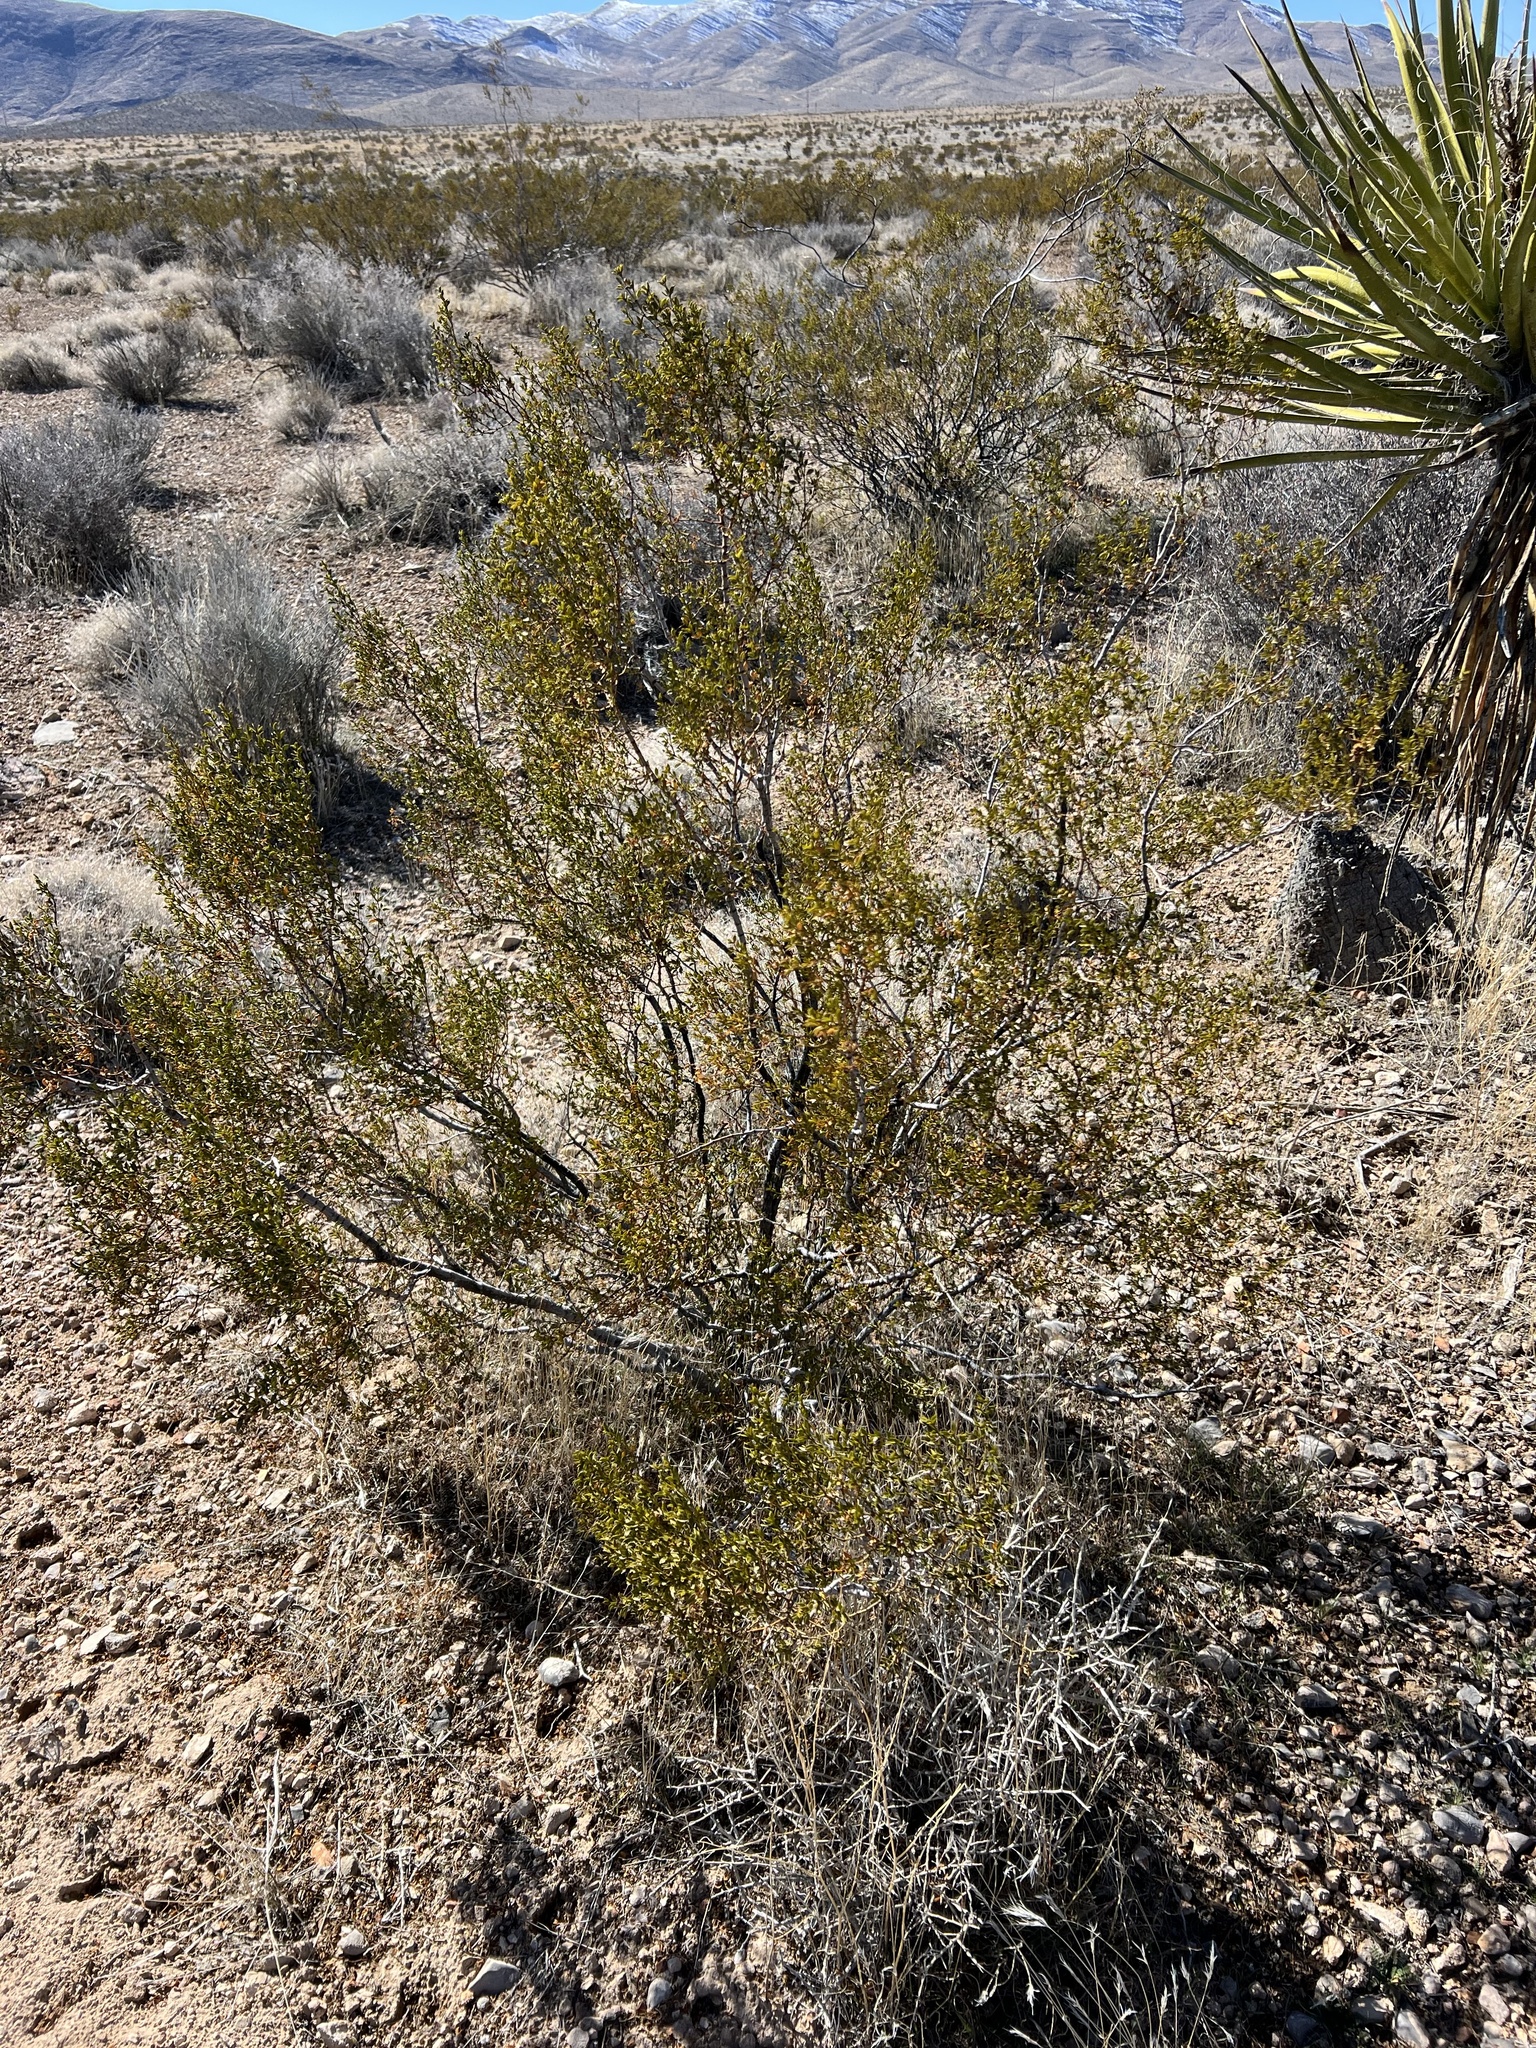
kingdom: Plantae
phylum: Tracheophyta
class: Magnoliopsida
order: Zygophyllales
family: Zygophyllaceae
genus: Larrea
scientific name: Larrea tridentata
